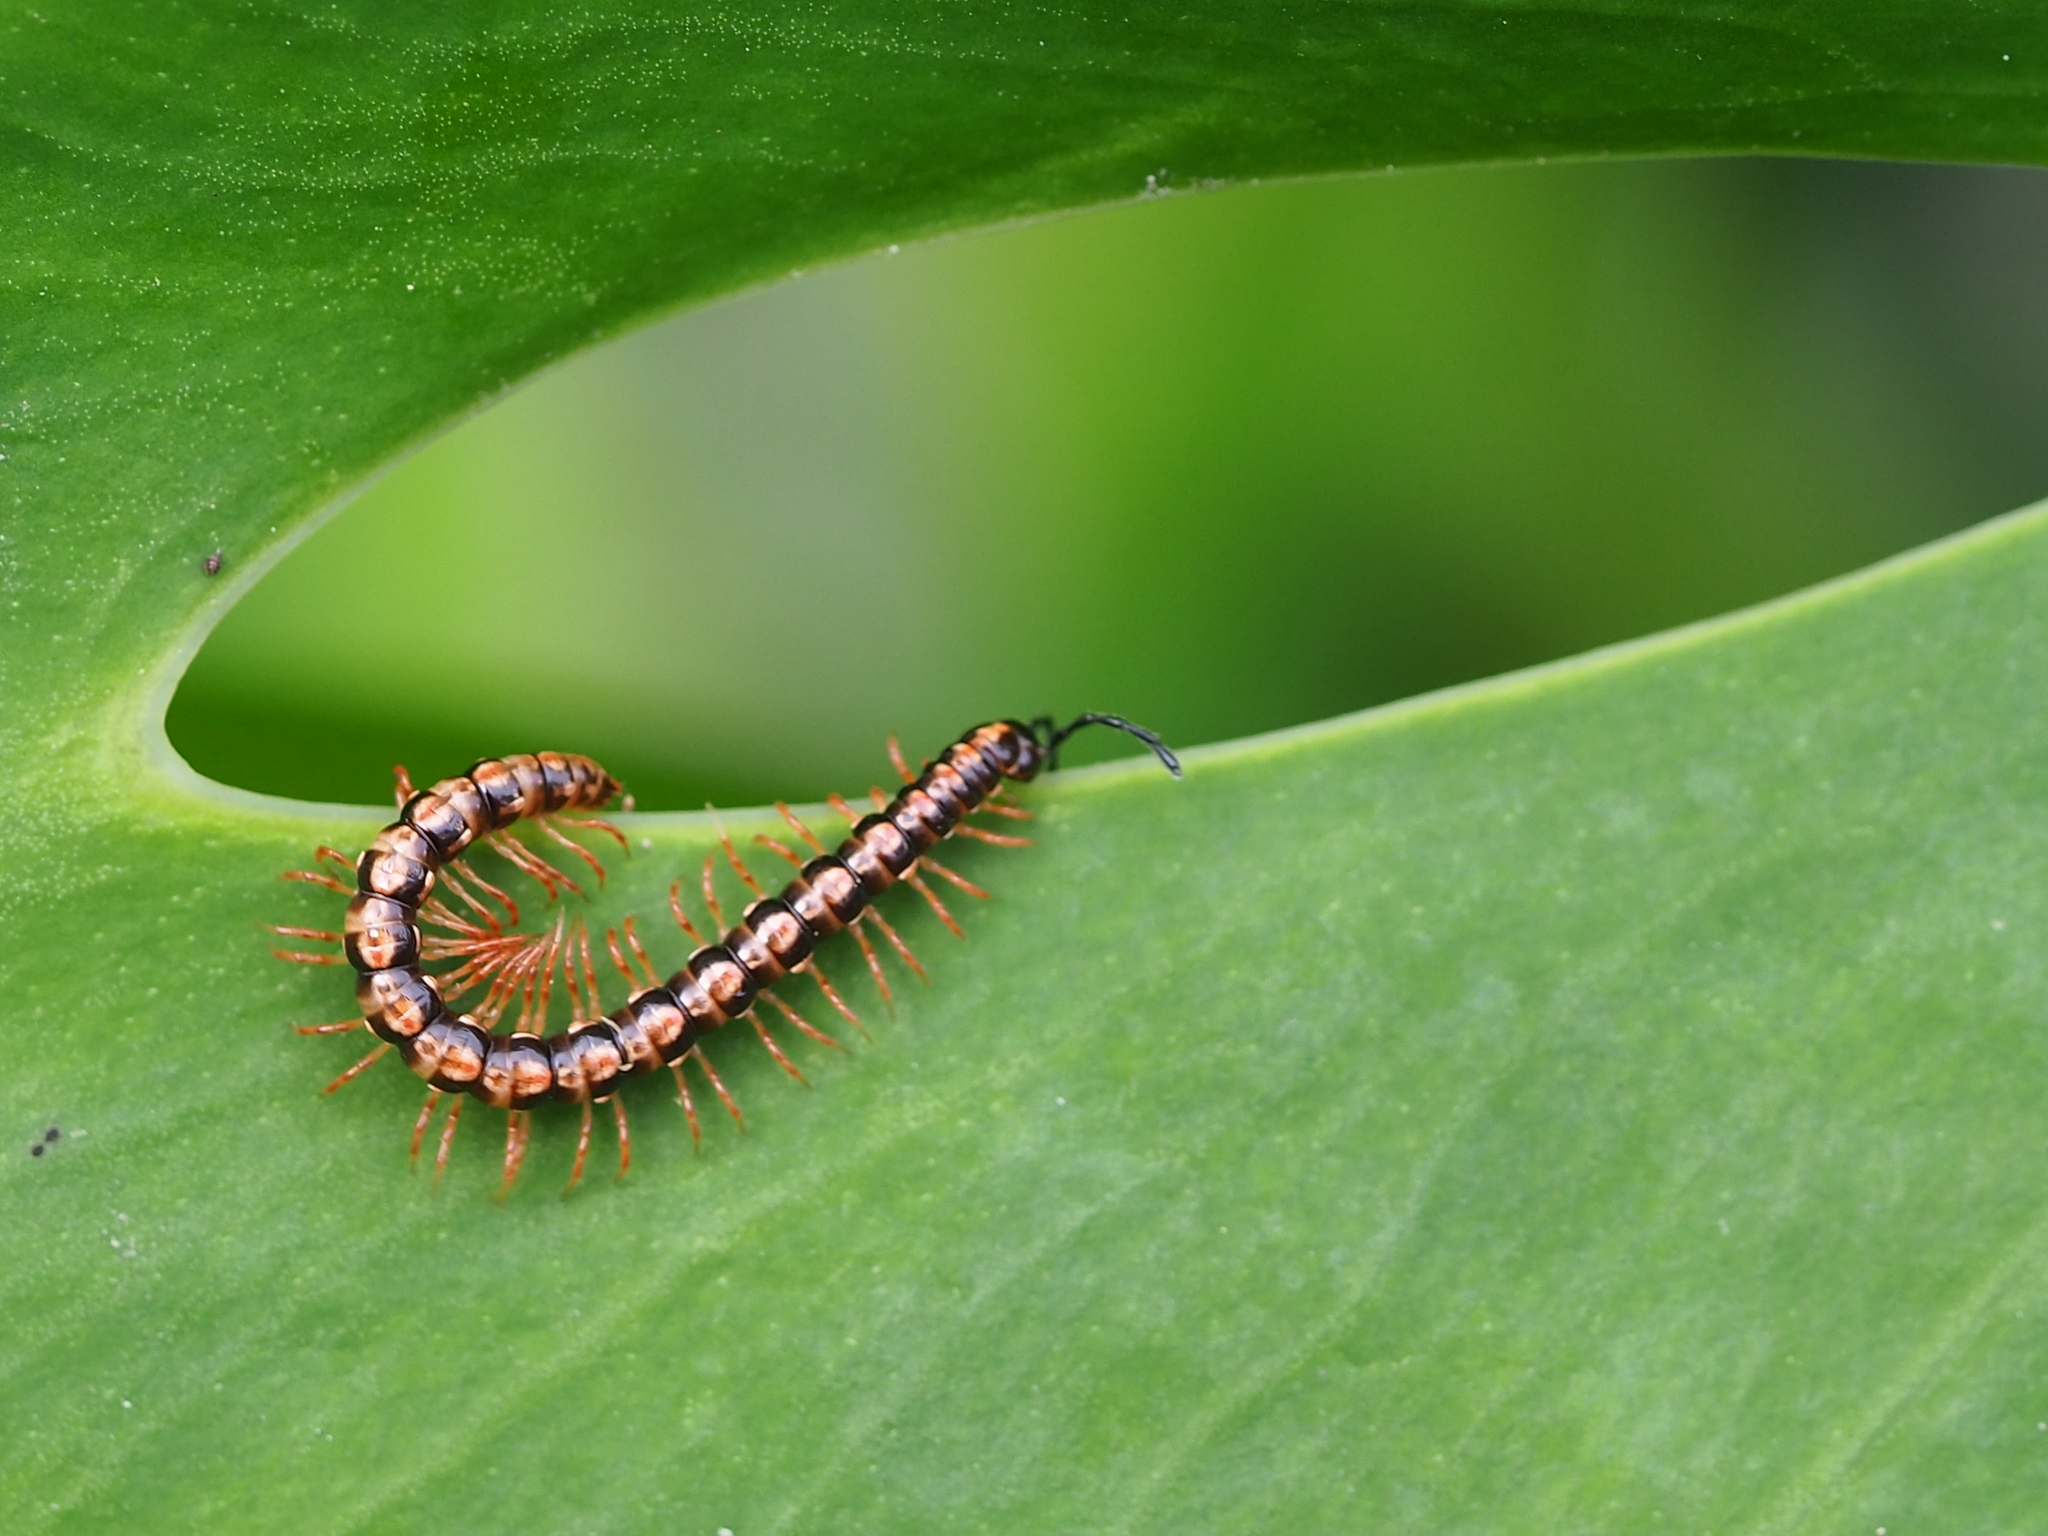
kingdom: Animalia
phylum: Arthropoda
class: Diplopoda
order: Polydesmida
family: Paradoxosomatidae
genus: Helicorthomorpha
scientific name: Helicorthomorpha holstii
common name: Millipede
